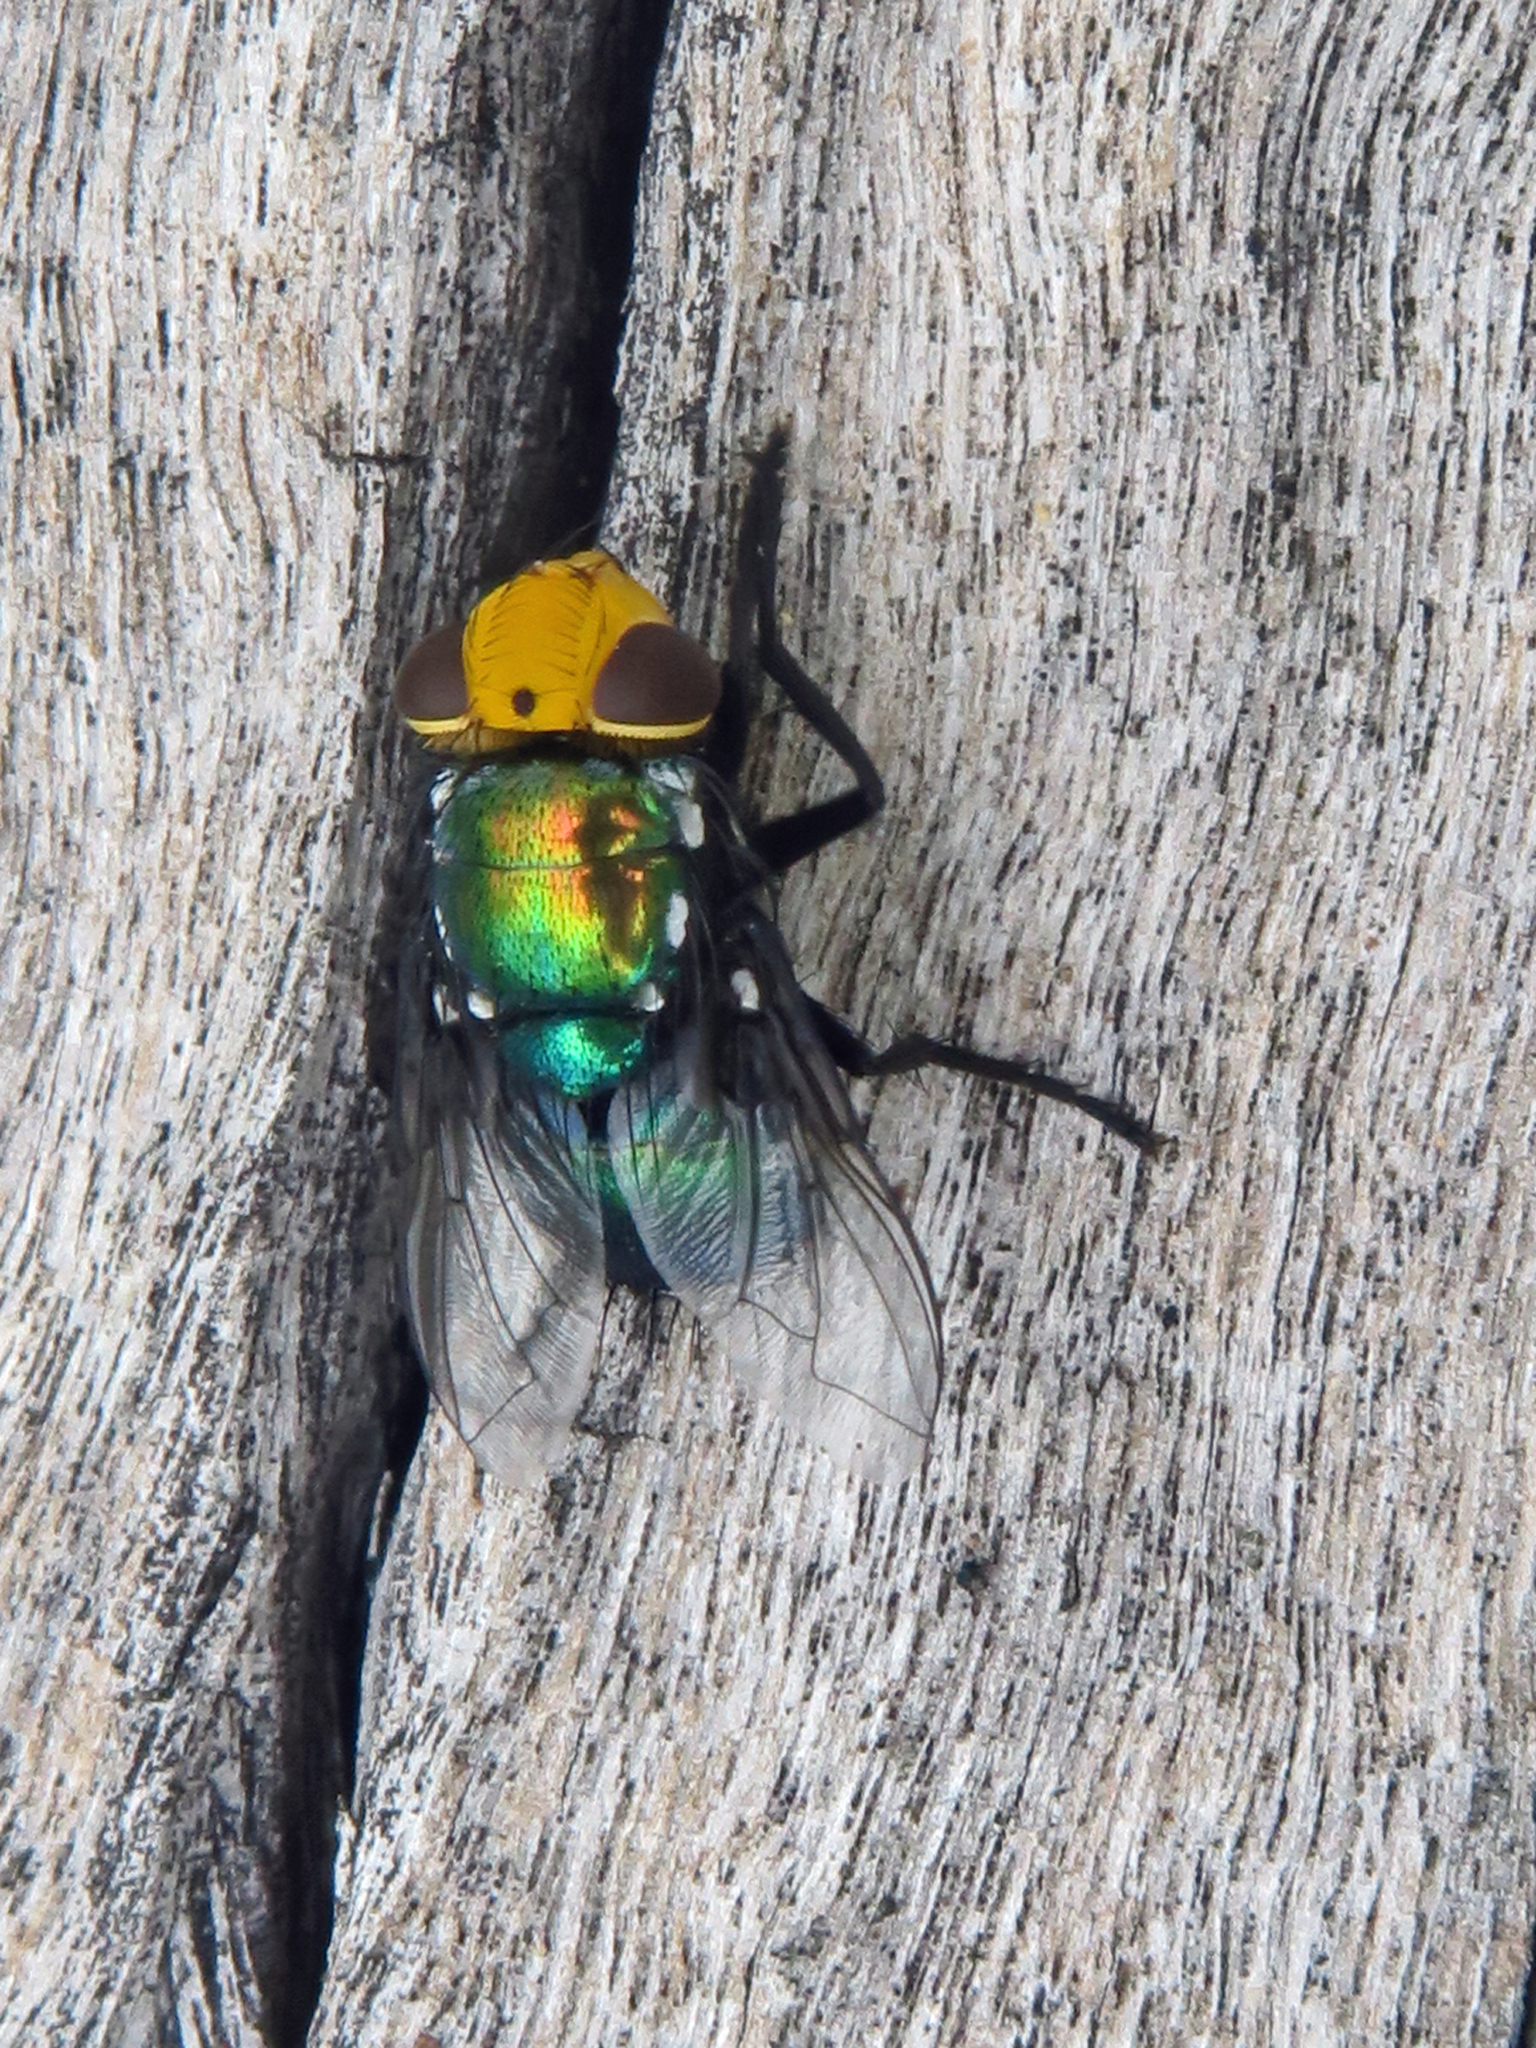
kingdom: Animalia
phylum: Arthropoda
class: Insecta
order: Diptera
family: Calliphoridae
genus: Amenia
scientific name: Amenia imperialis
